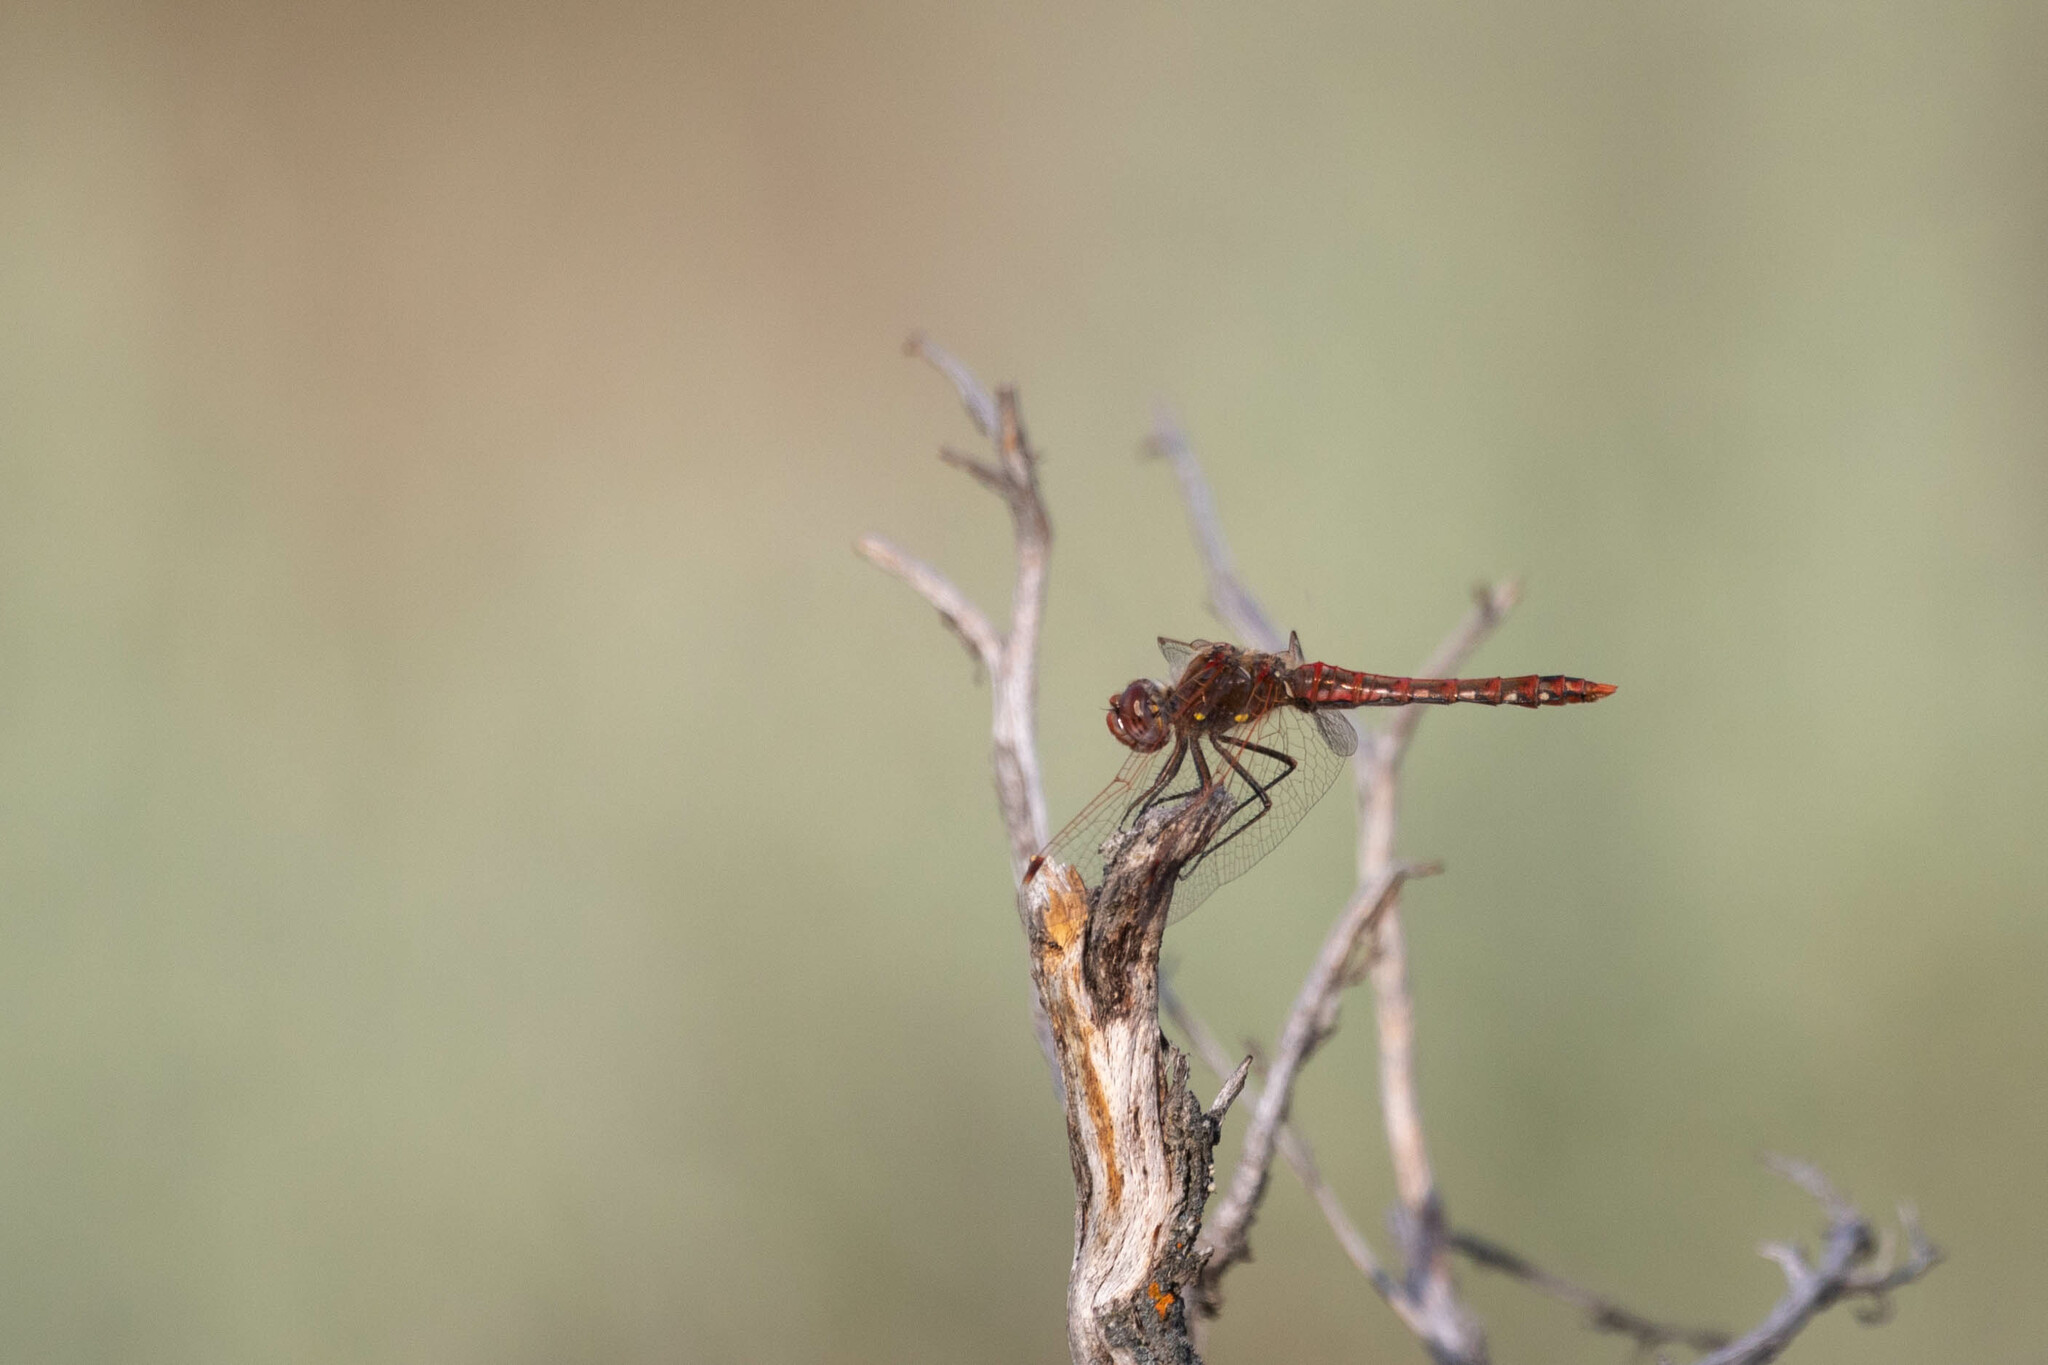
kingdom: Animalia
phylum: Arthropoda
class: Insecta
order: Odonata
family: Libellulidae
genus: Sympetrum
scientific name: Sympetrum corruptum
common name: Variegated meadowhawk
